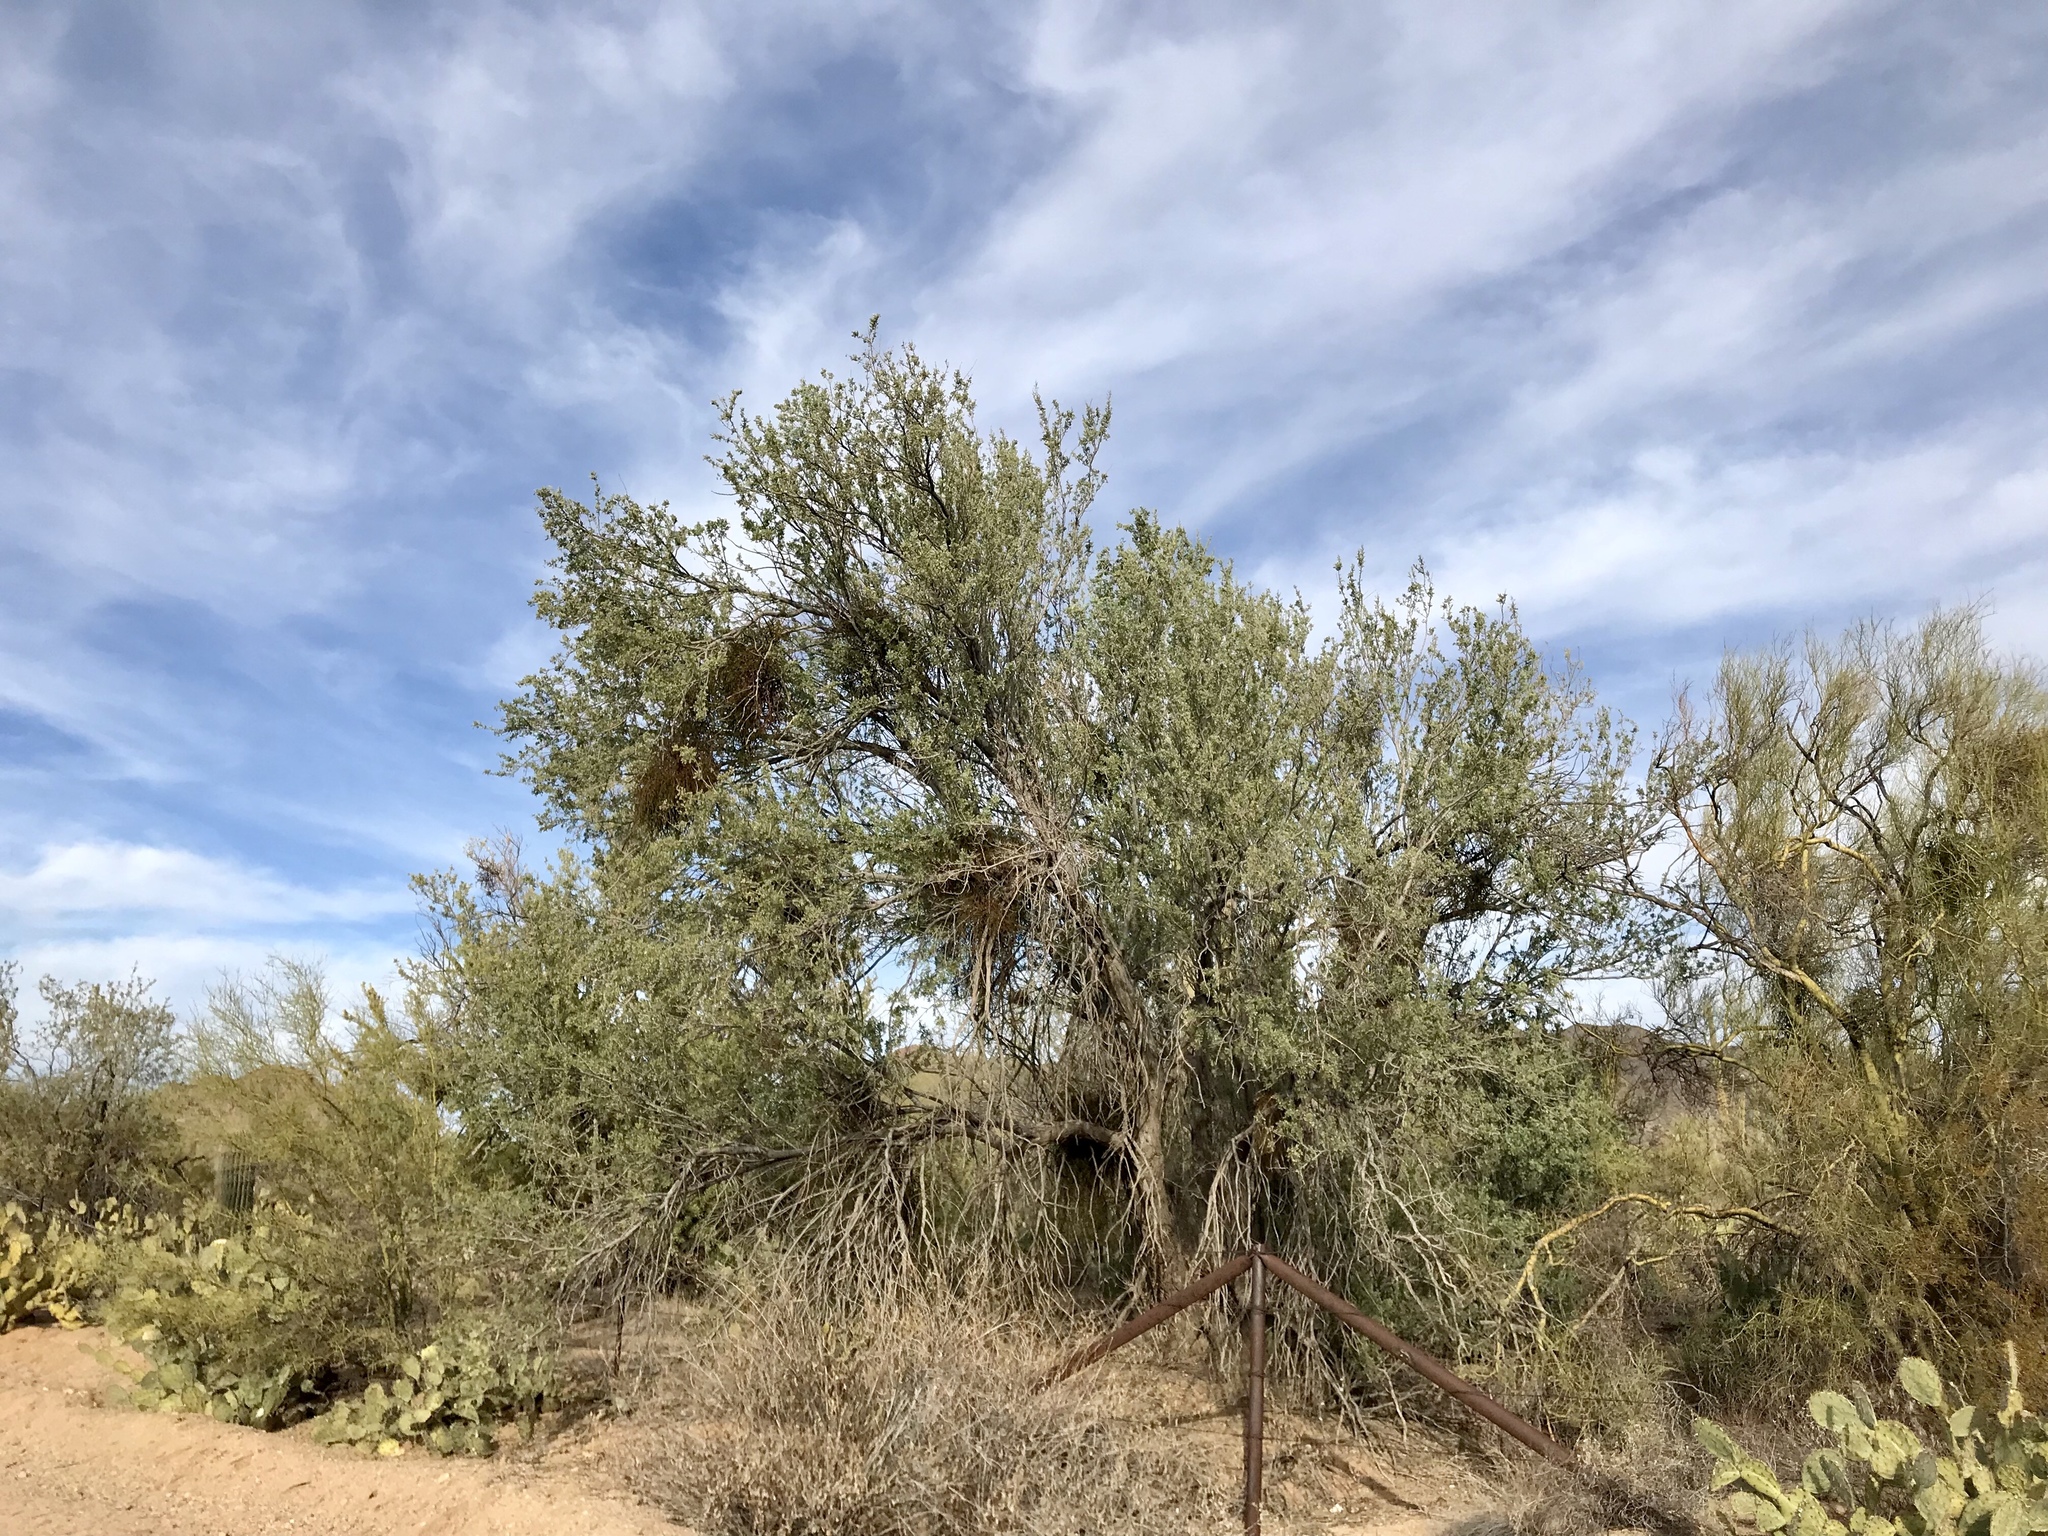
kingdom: Plantae
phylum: Tracheophyta
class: Magnoliopsida
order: Fabales
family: Fabaceae
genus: Olneya
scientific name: Olneya tesota
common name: Desert ironwood
